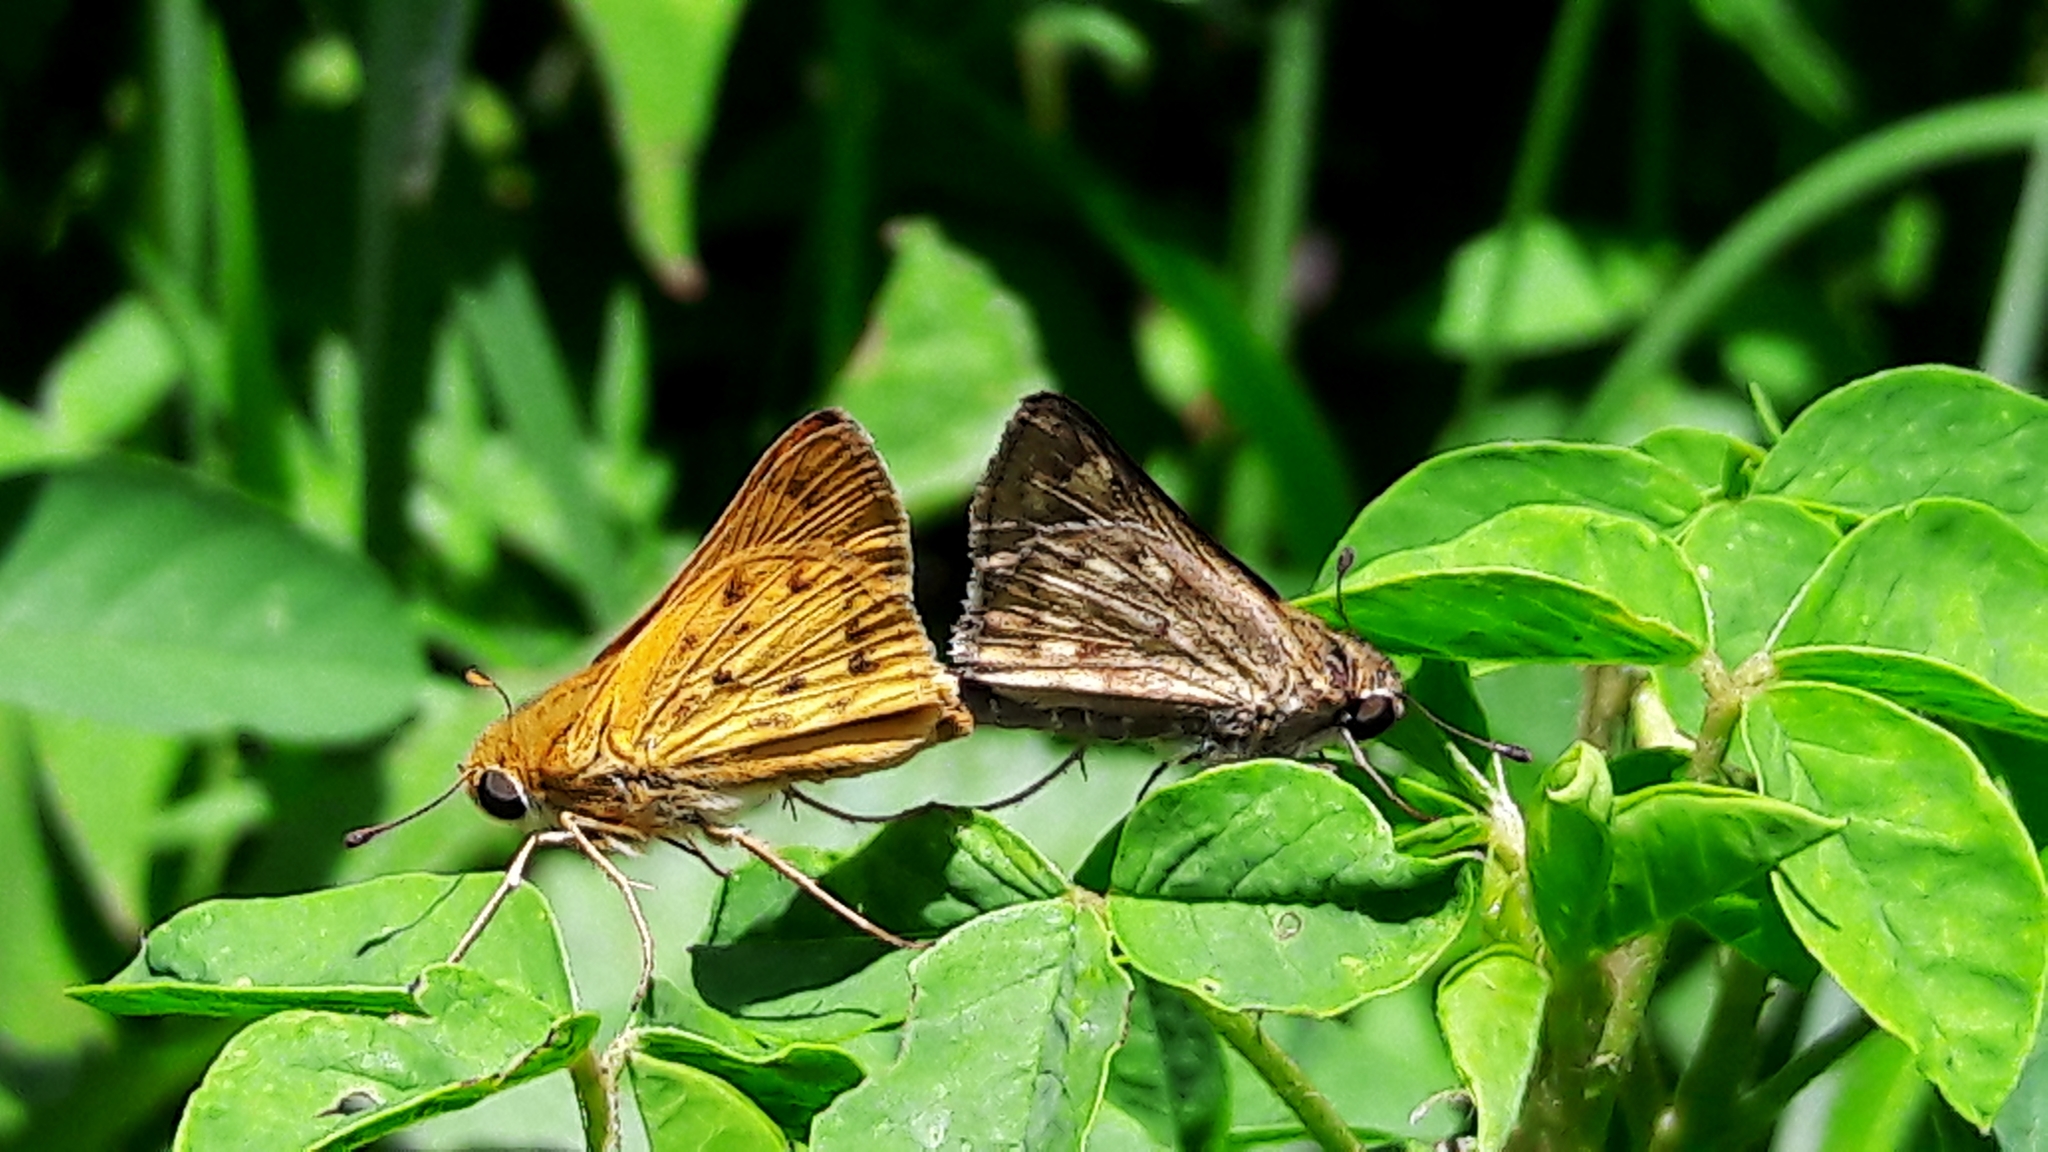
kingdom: Animalia
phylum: Arthropoda
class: Insecta
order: Lepidoptera
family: Hesperiidae
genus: Hylephila
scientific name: Hylephila phyleus
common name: Fiery skipper
